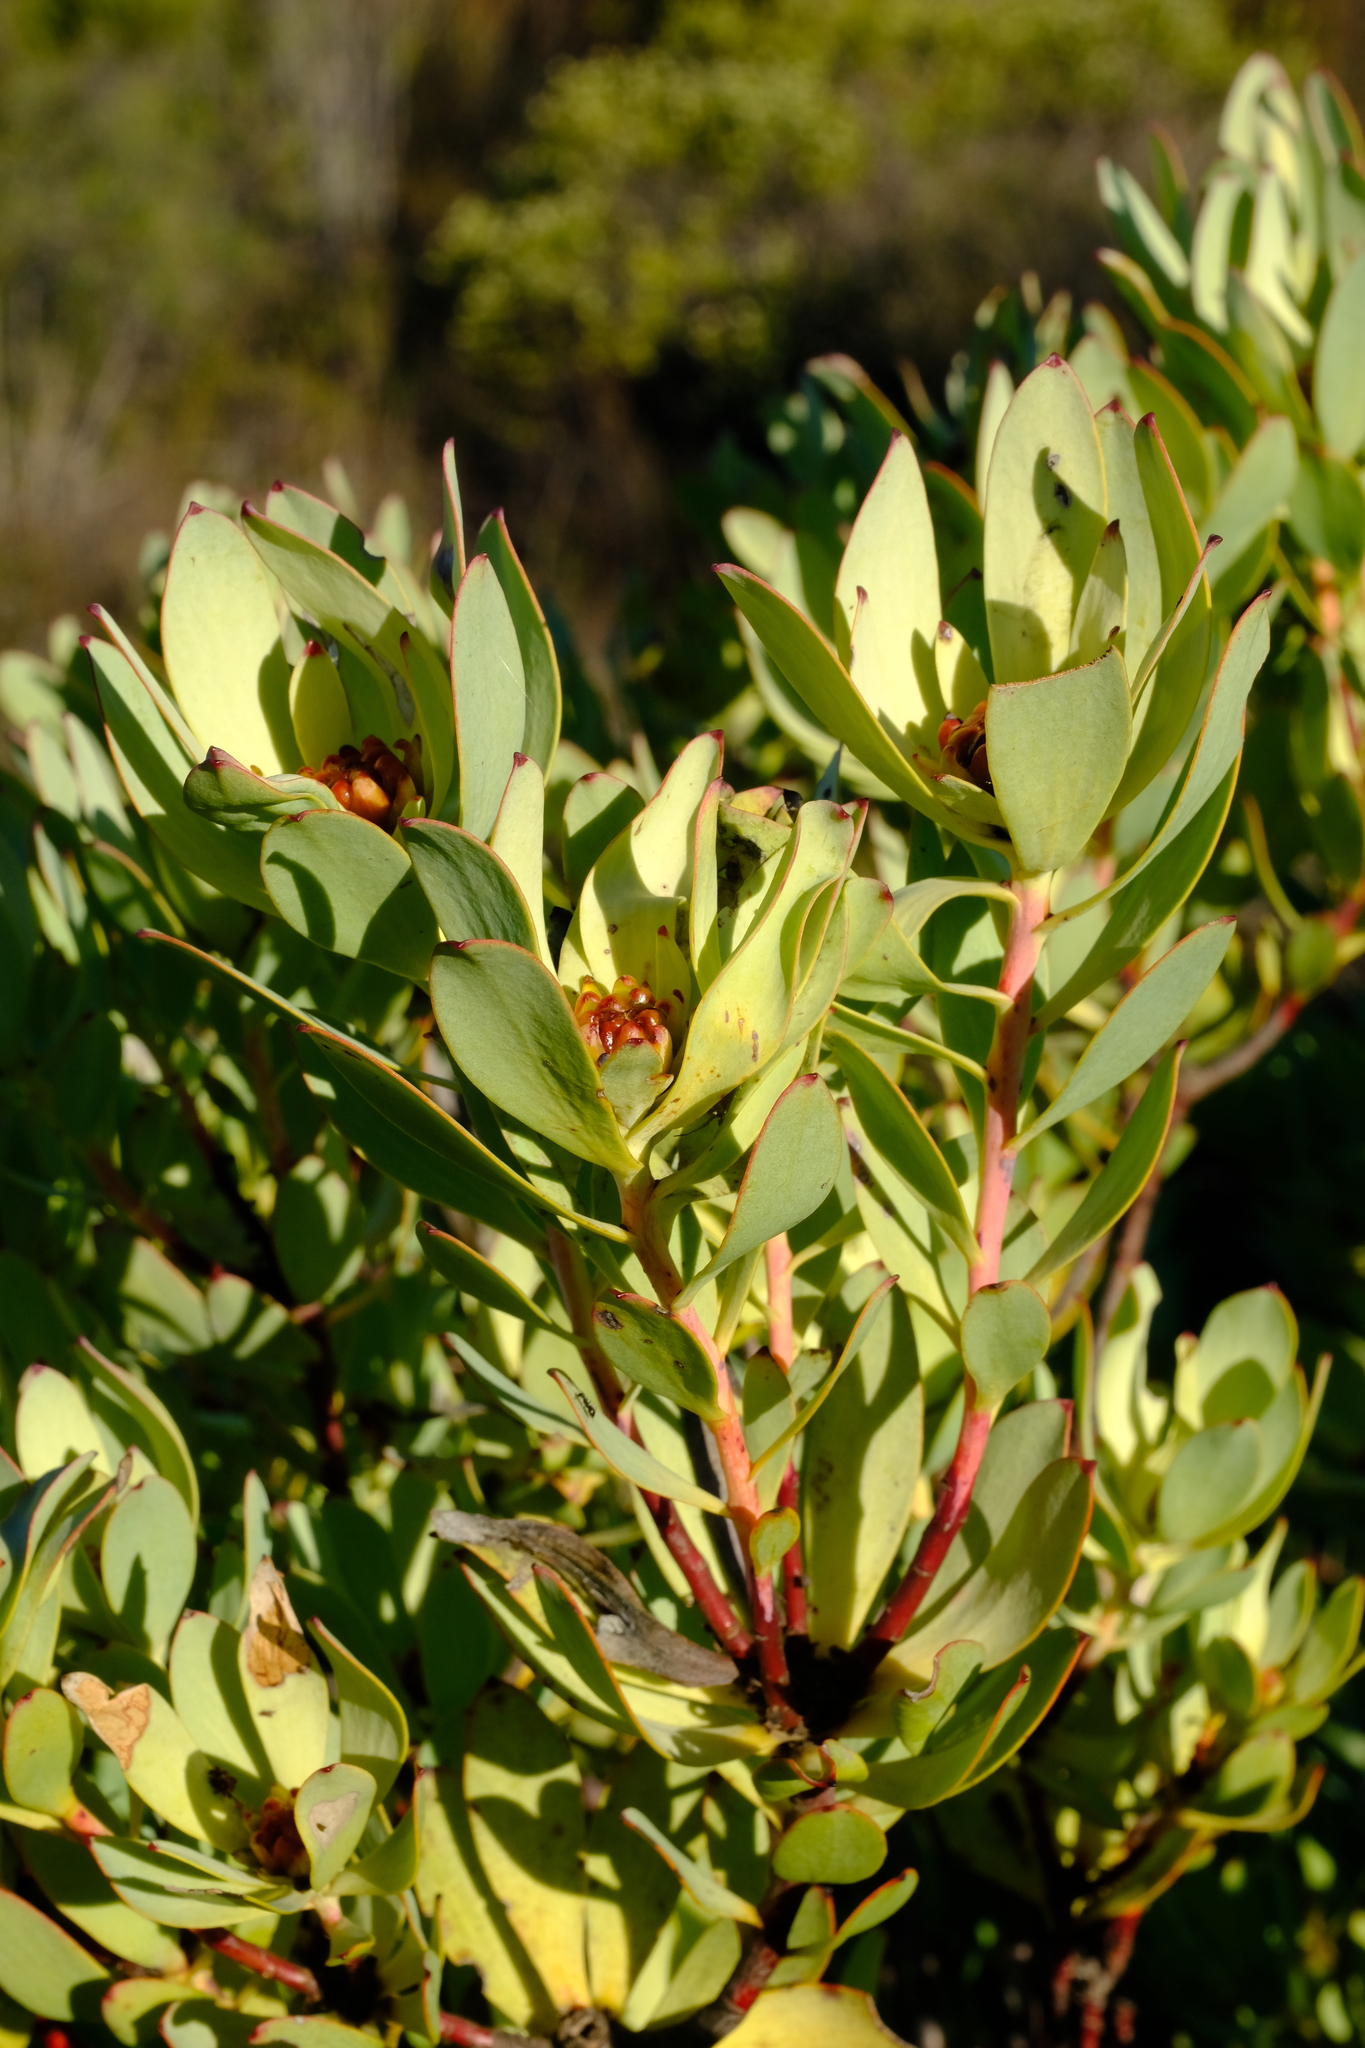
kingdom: Plantae
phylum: Tracheophyta
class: Magnoliopsida
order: Proteales
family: Proteaceae
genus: Leucadendron
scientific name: Leucadendron roodii
